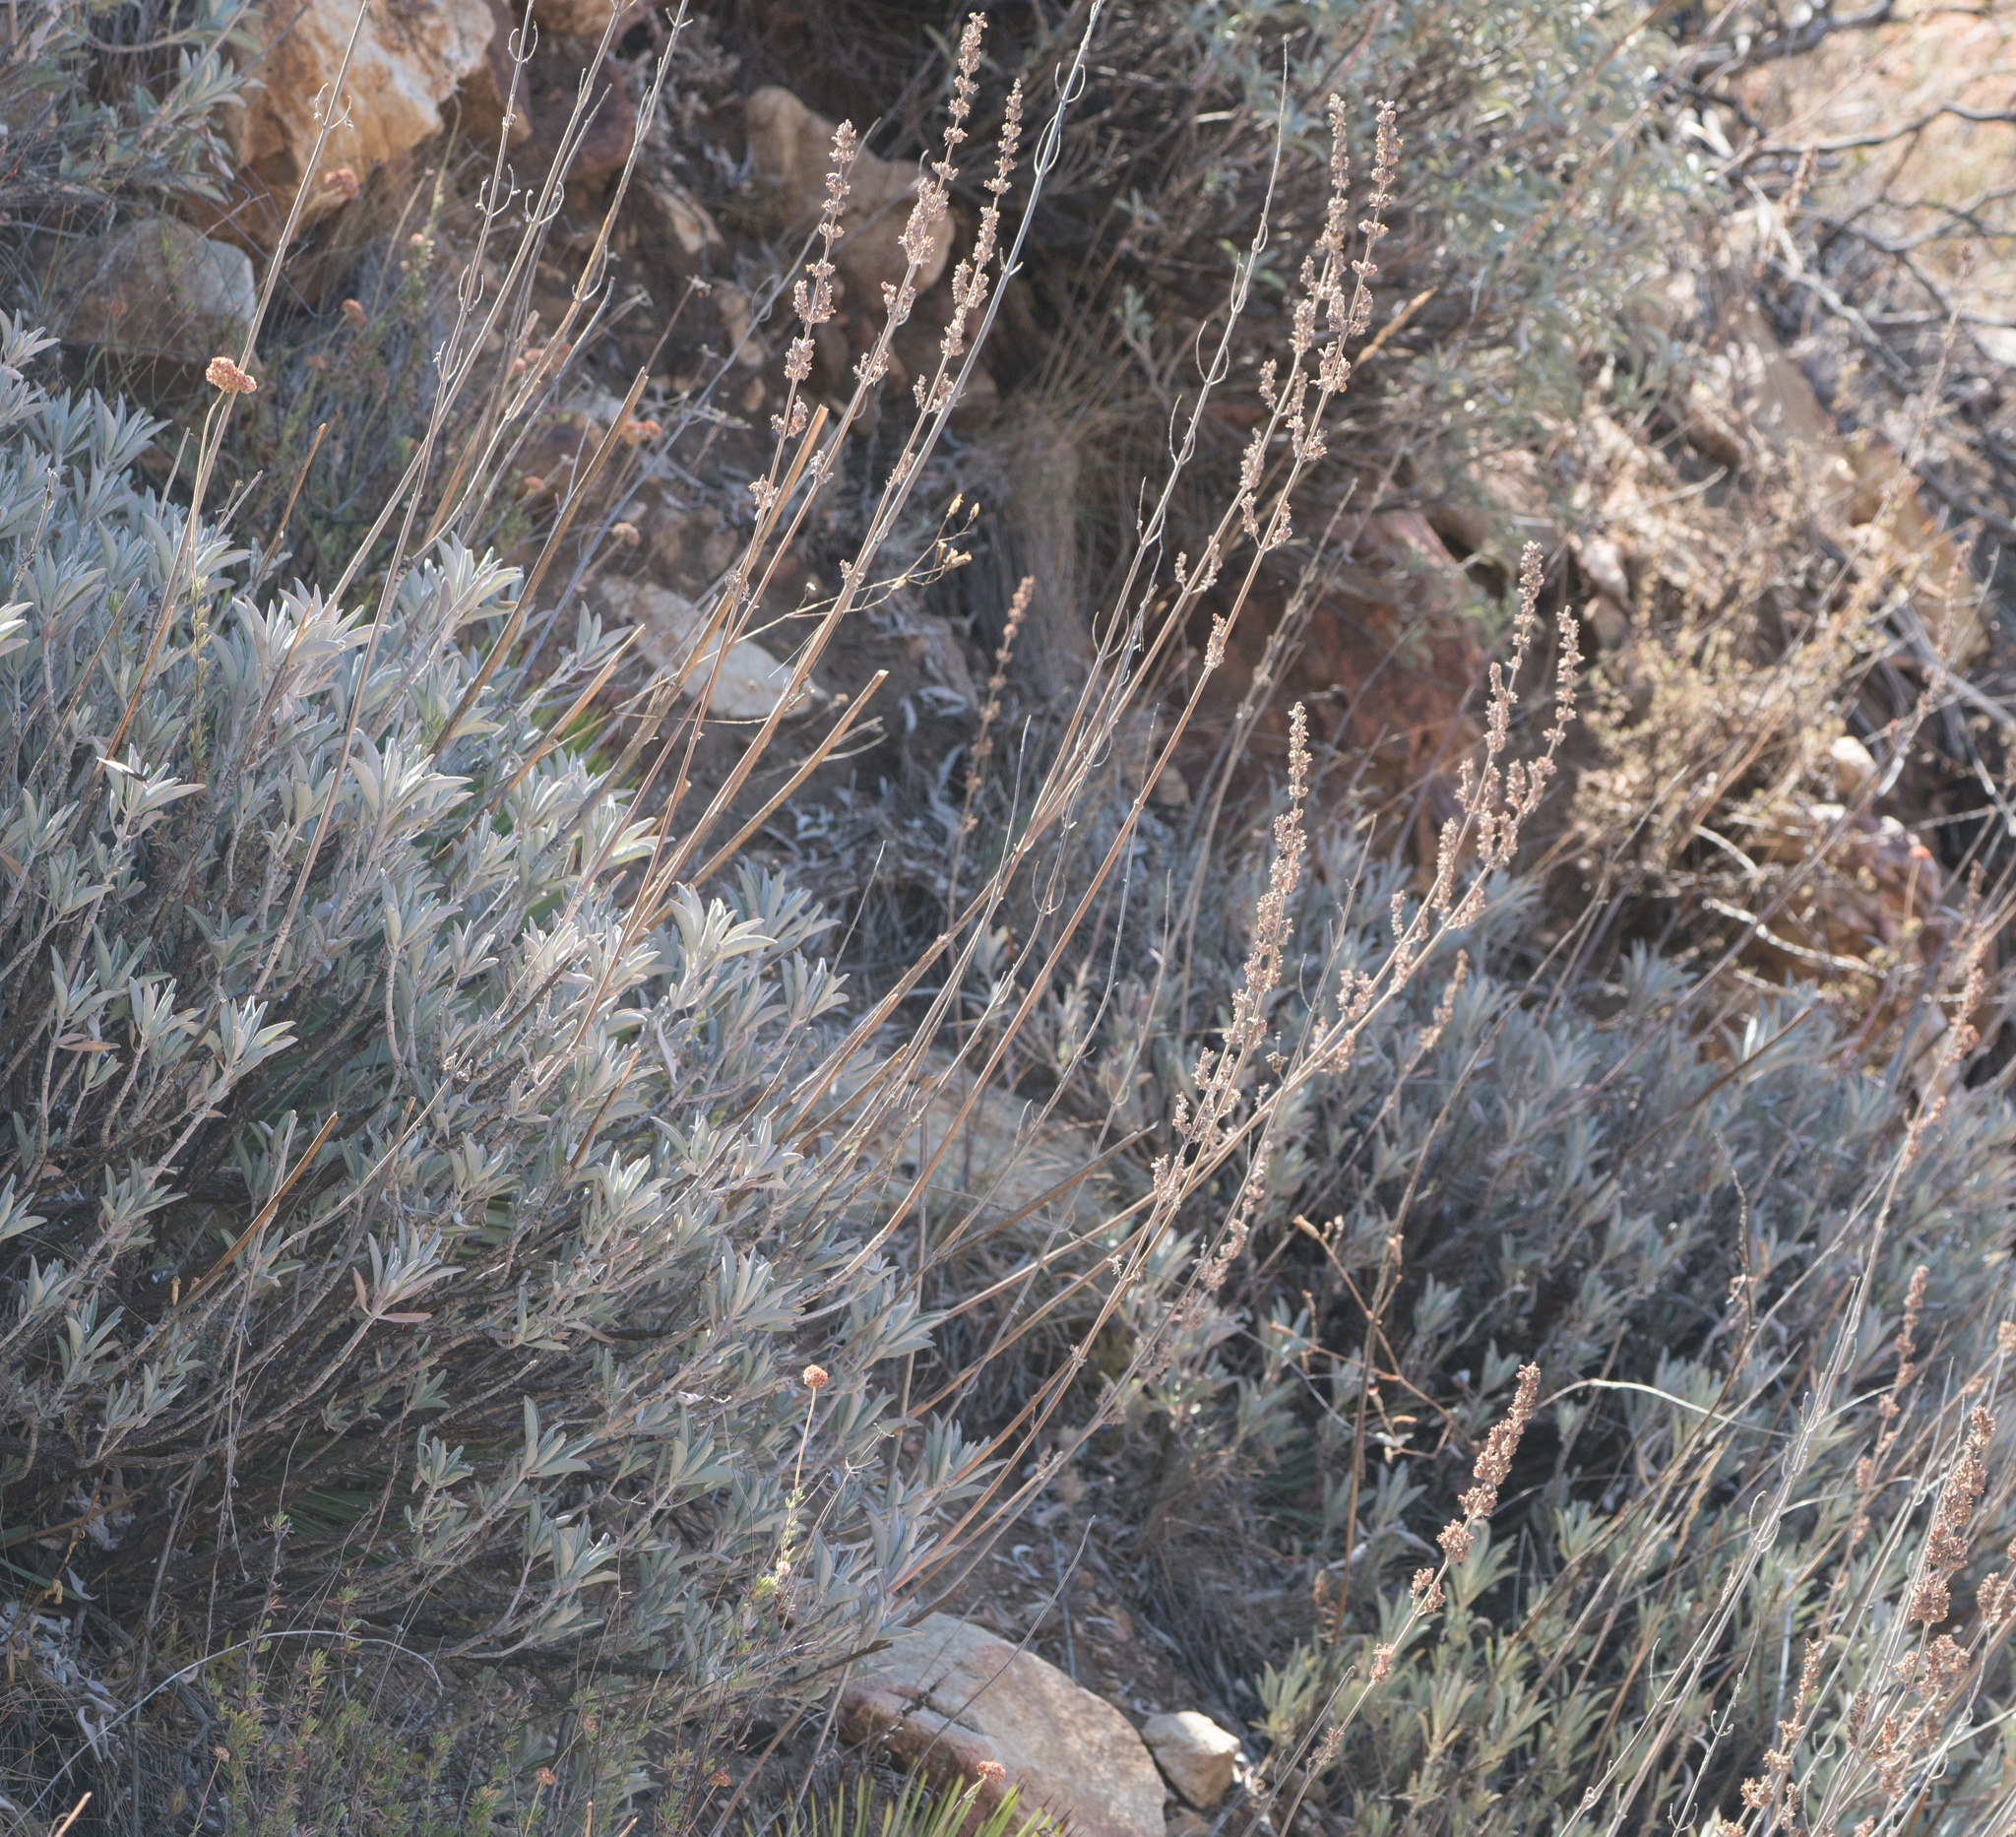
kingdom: Plantae
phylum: Tracheophyta
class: Magnoliopsida
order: Lamiales
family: Lamiaceae
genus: Salvia
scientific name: Salvia apiana
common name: White sage
